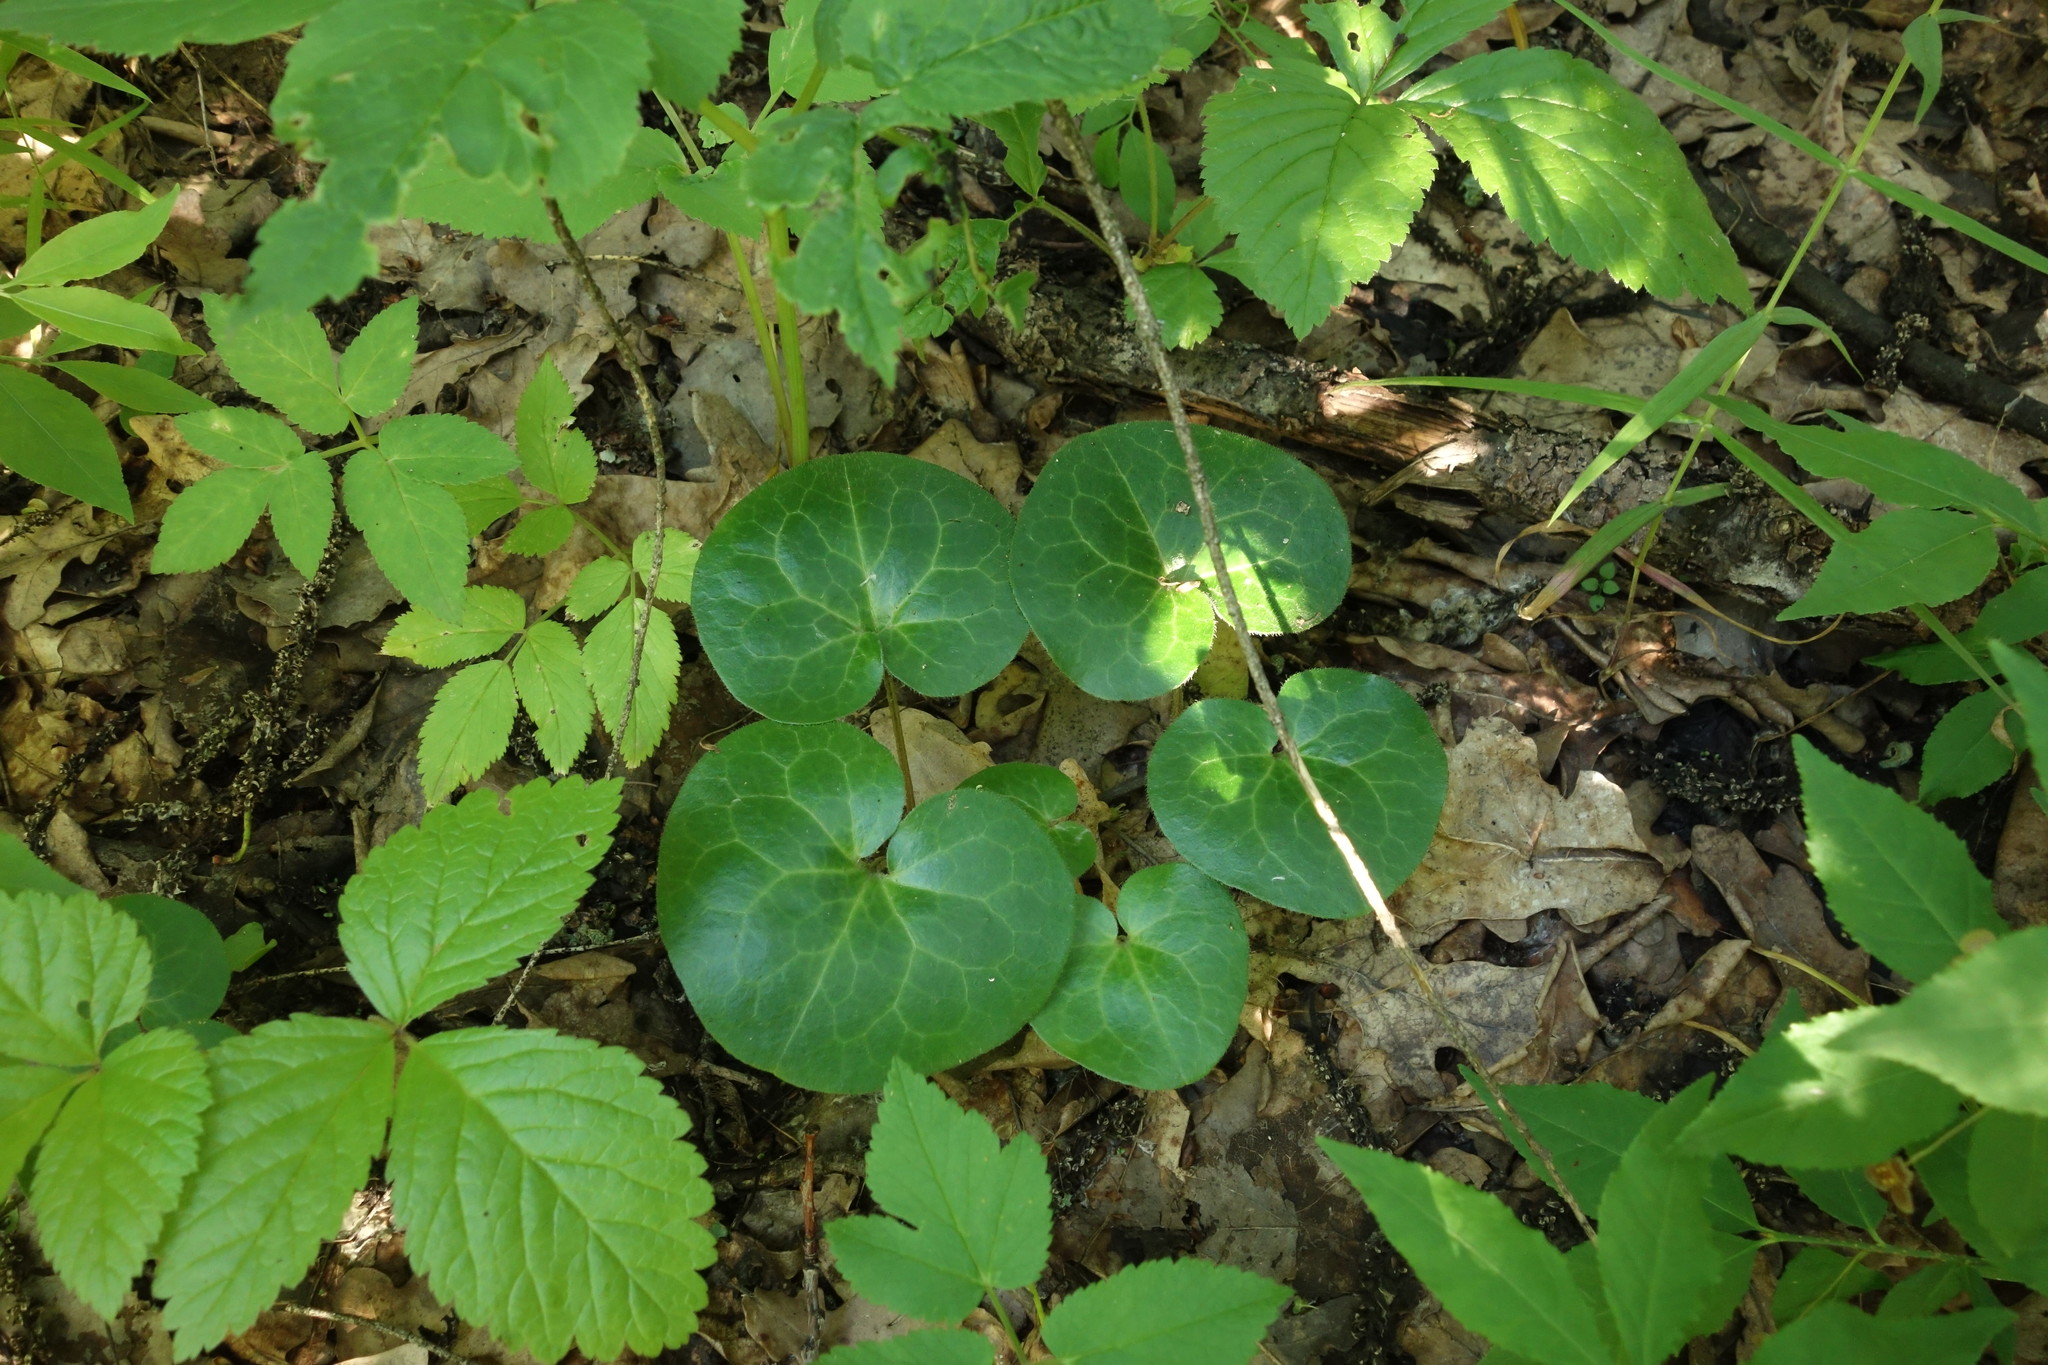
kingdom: Plantae
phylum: Tracheophyta
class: Magnoliopsida
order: Piperales
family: Aristolochiaceae
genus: Asarum
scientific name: Asarum europaeum
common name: Asarabacca
